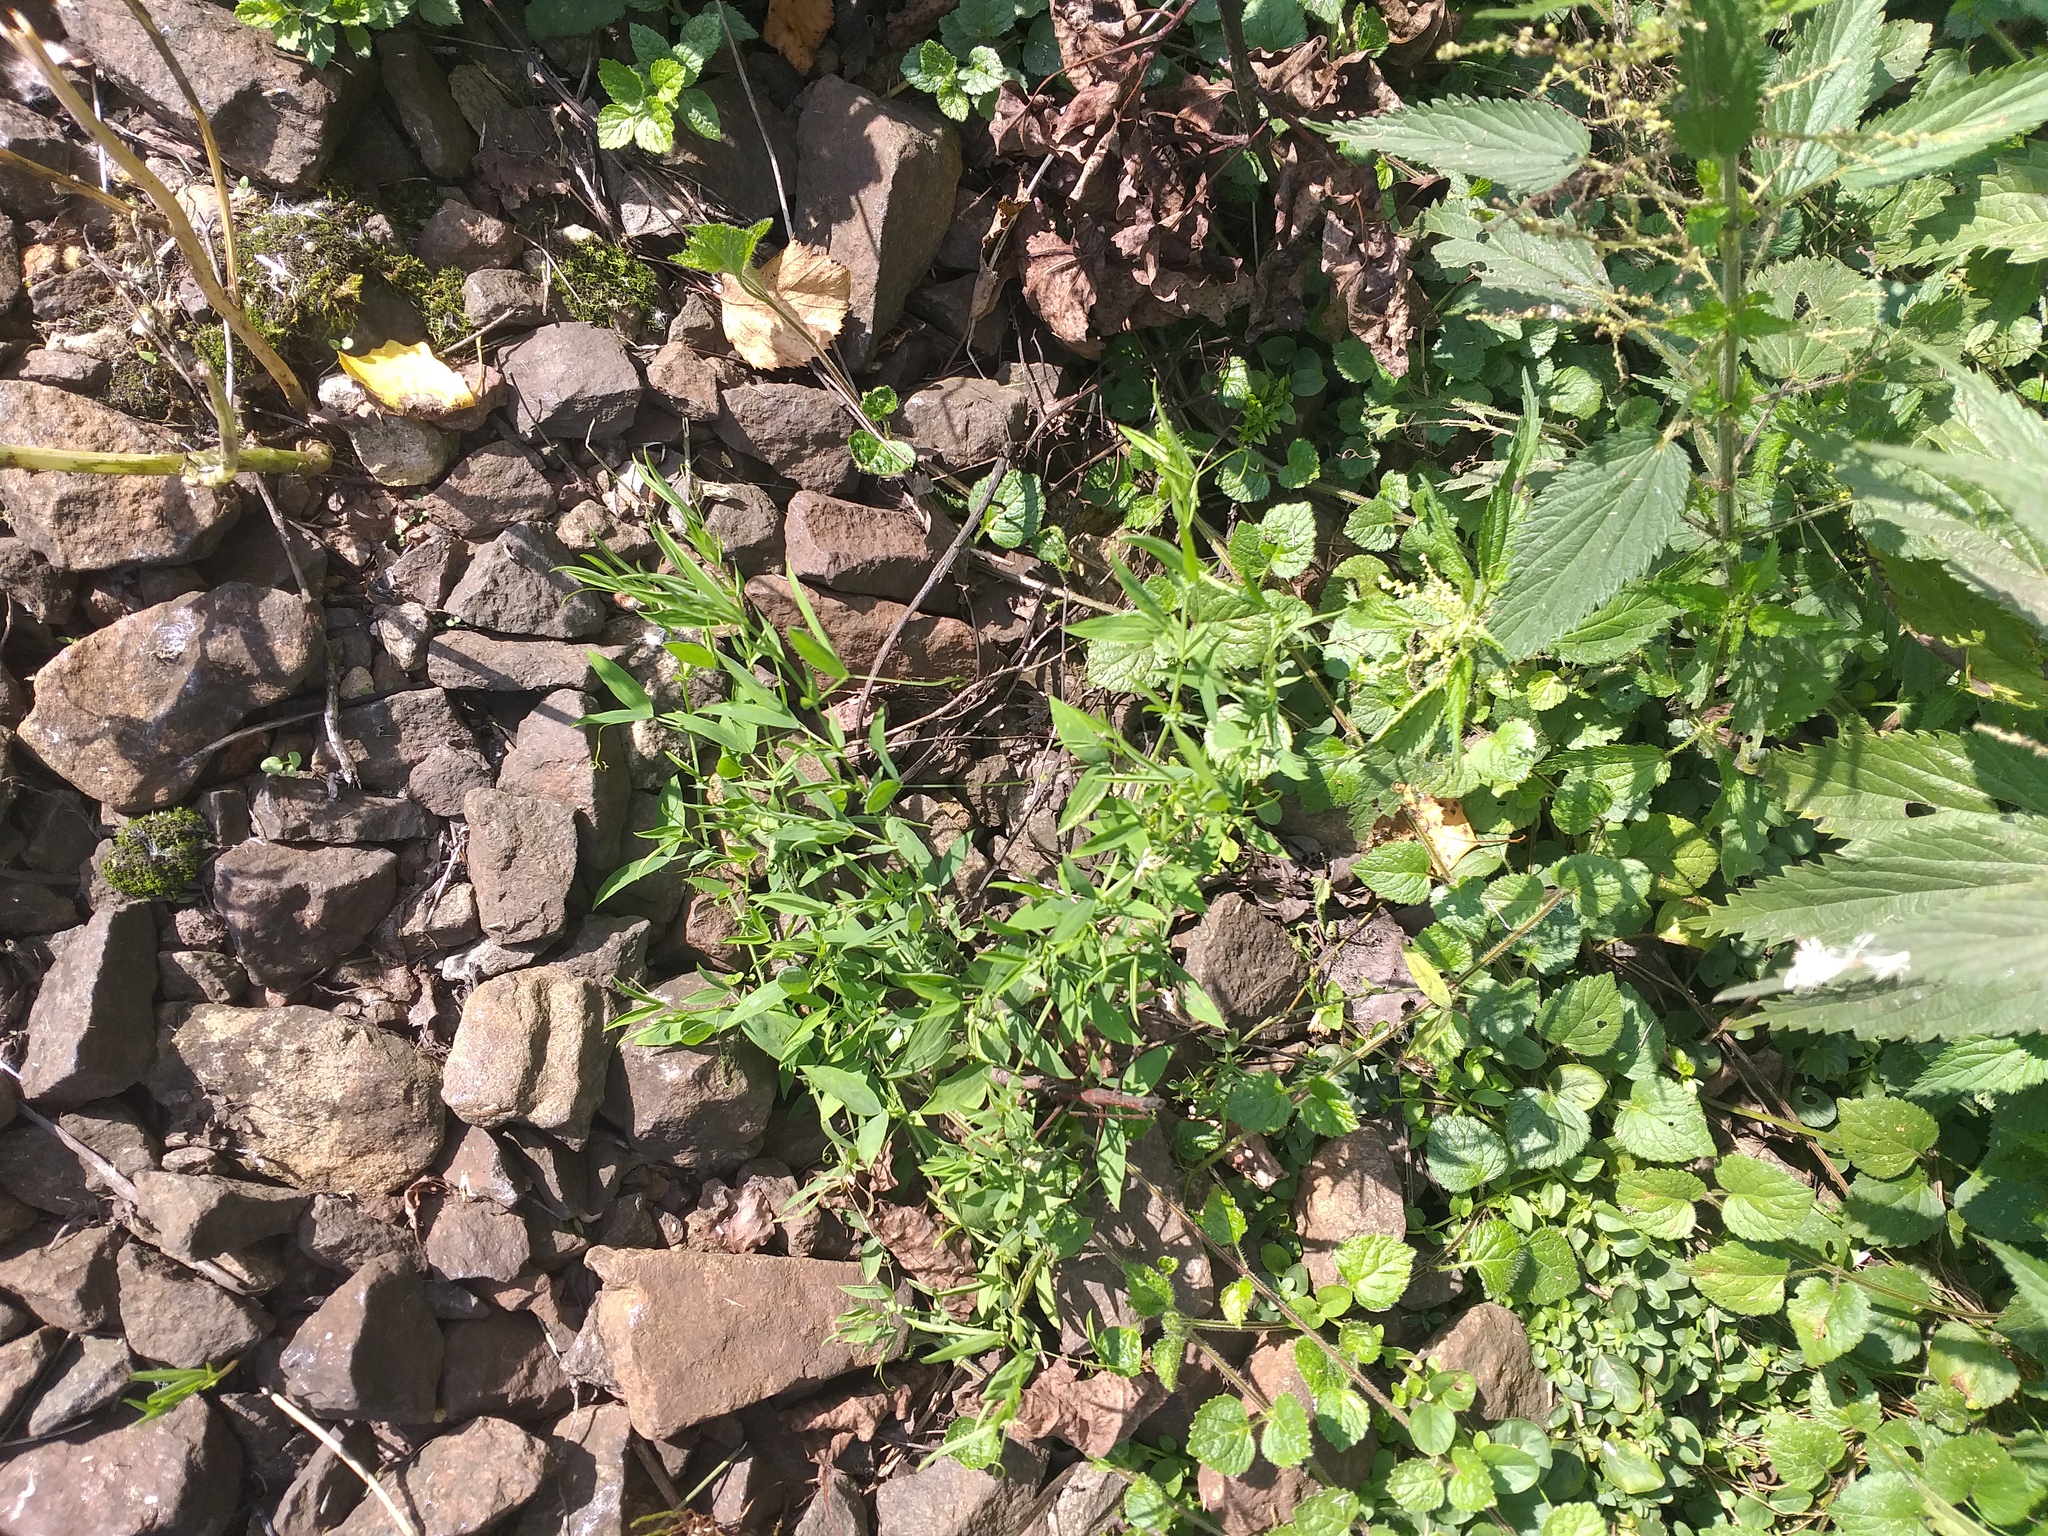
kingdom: Plantae
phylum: Tracheophyta
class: Magnoliopsida
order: Fabales
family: Fabaceae
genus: Lathyrus
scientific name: Lathyrus pratensis
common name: Meadow vetchling
